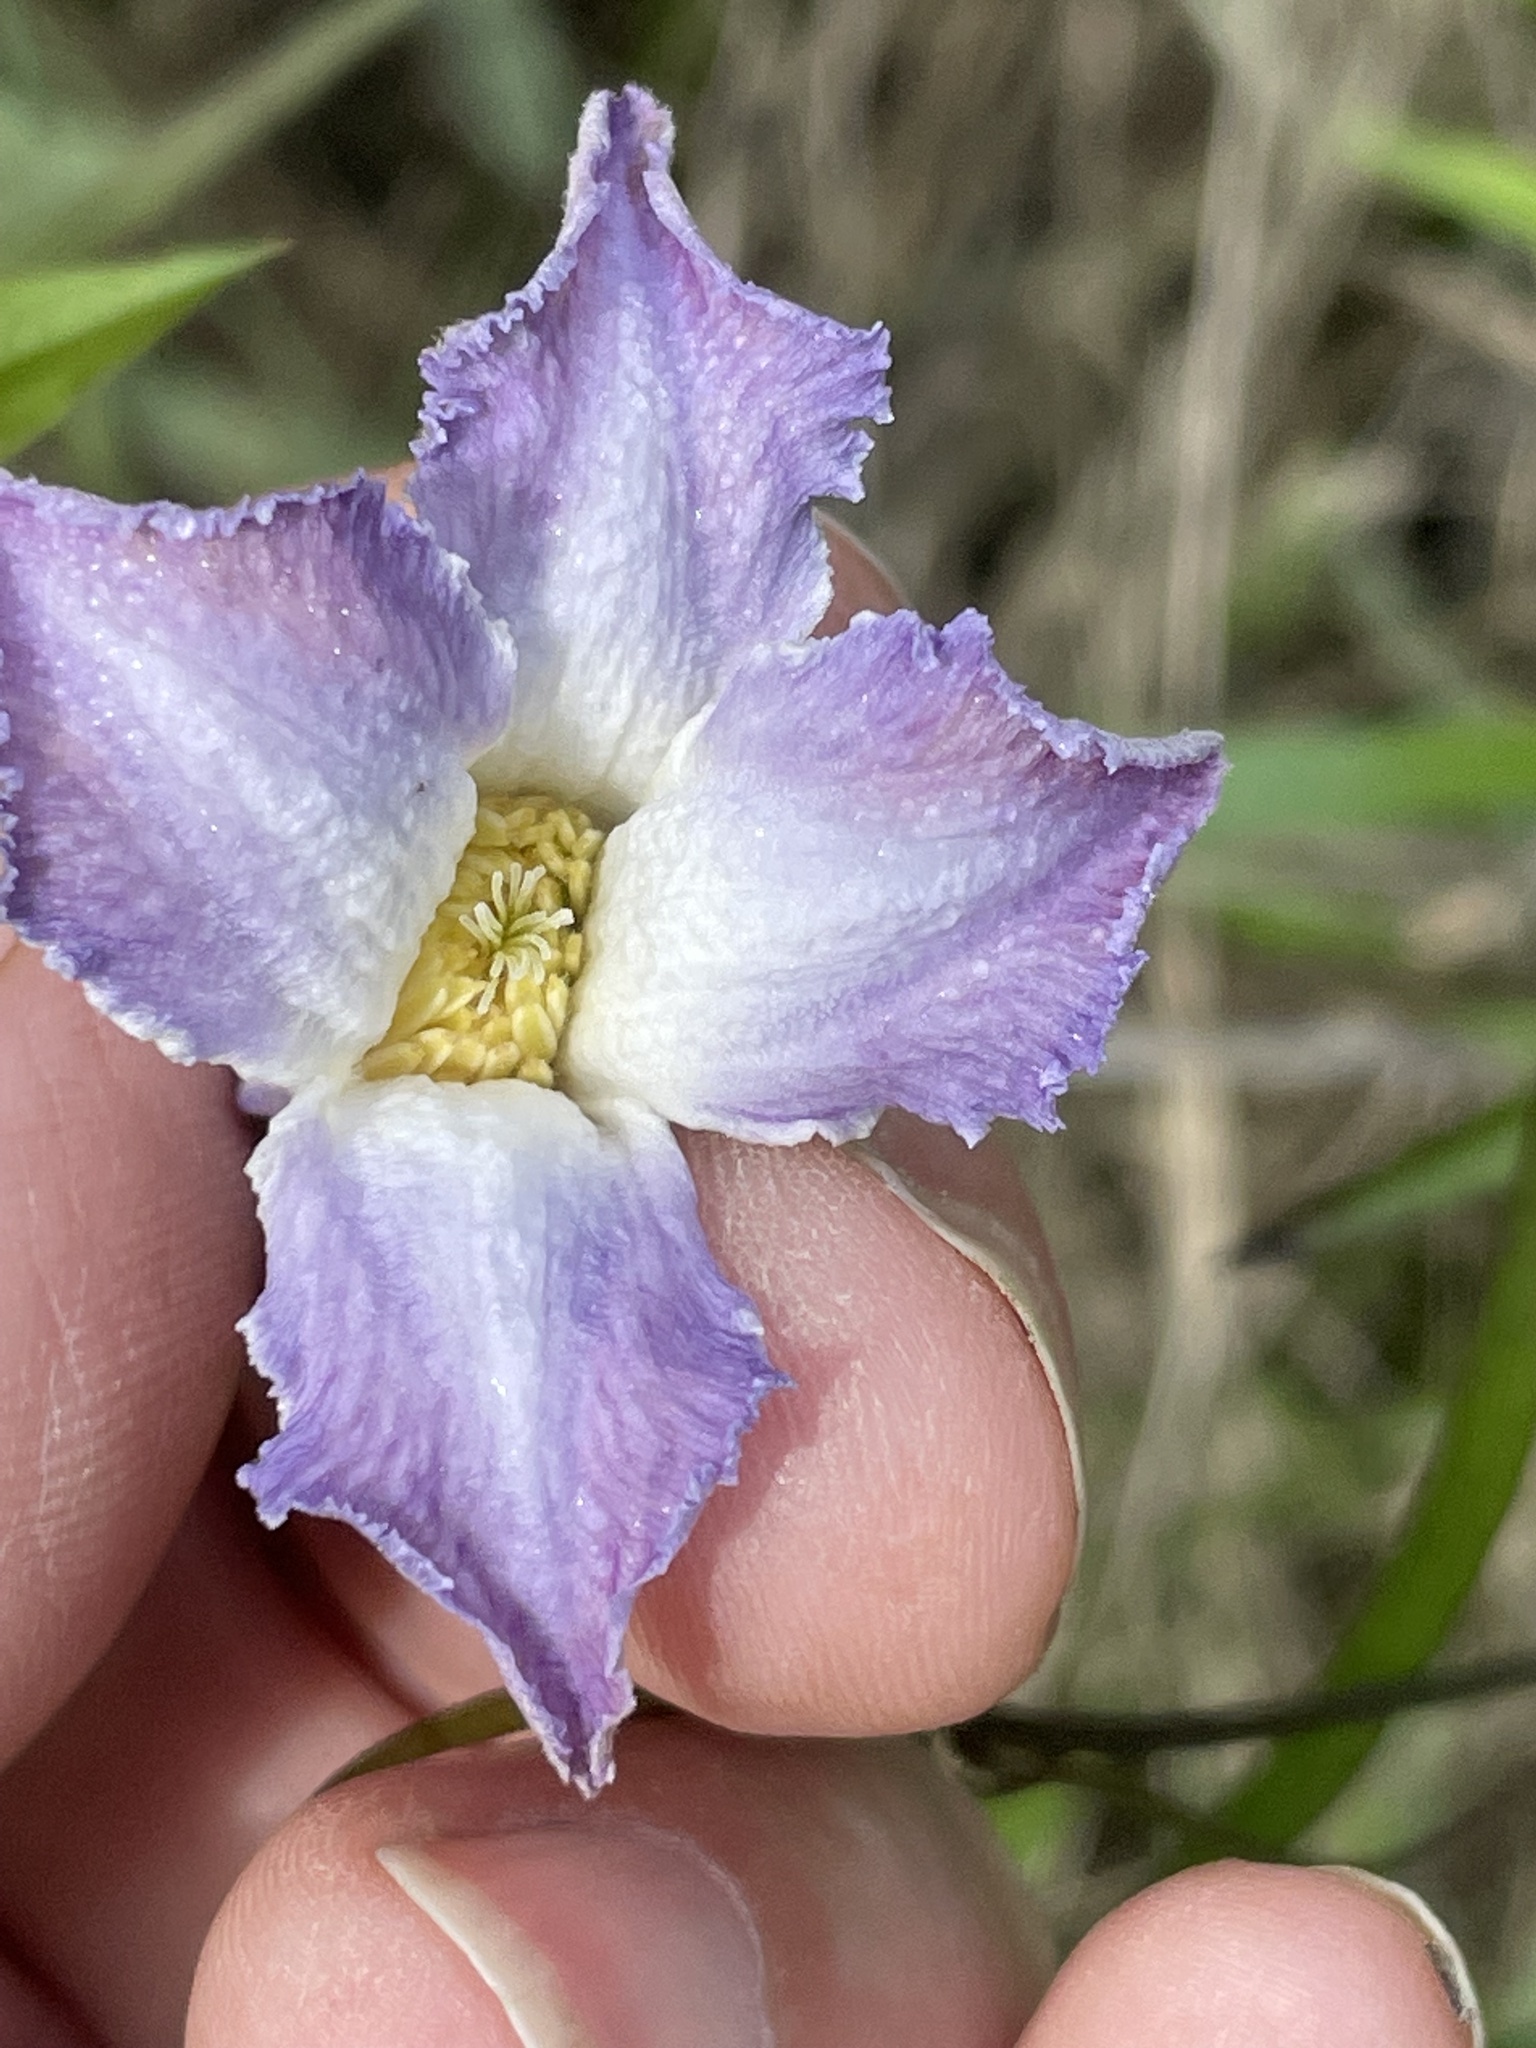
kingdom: Plantae
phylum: Tracheophyta
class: Magnoliopsida
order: Ranunculales
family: Ranunculaceae
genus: Clematis
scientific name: Clematis crispa
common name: Curly clematis
